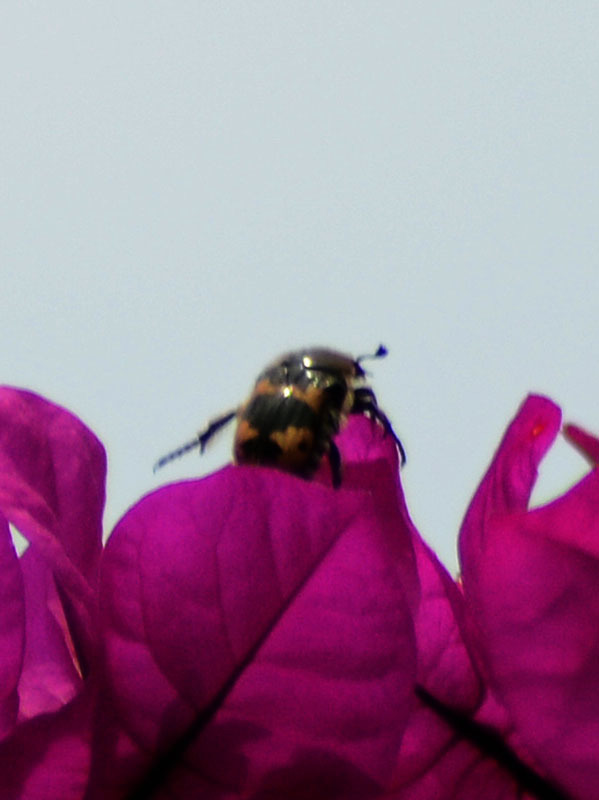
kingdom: Animalia
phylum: Arthropoda
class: Insecta
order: Coleoptera
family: Scarabaeidae
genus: Euphoria
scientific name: Euphoria basalis
